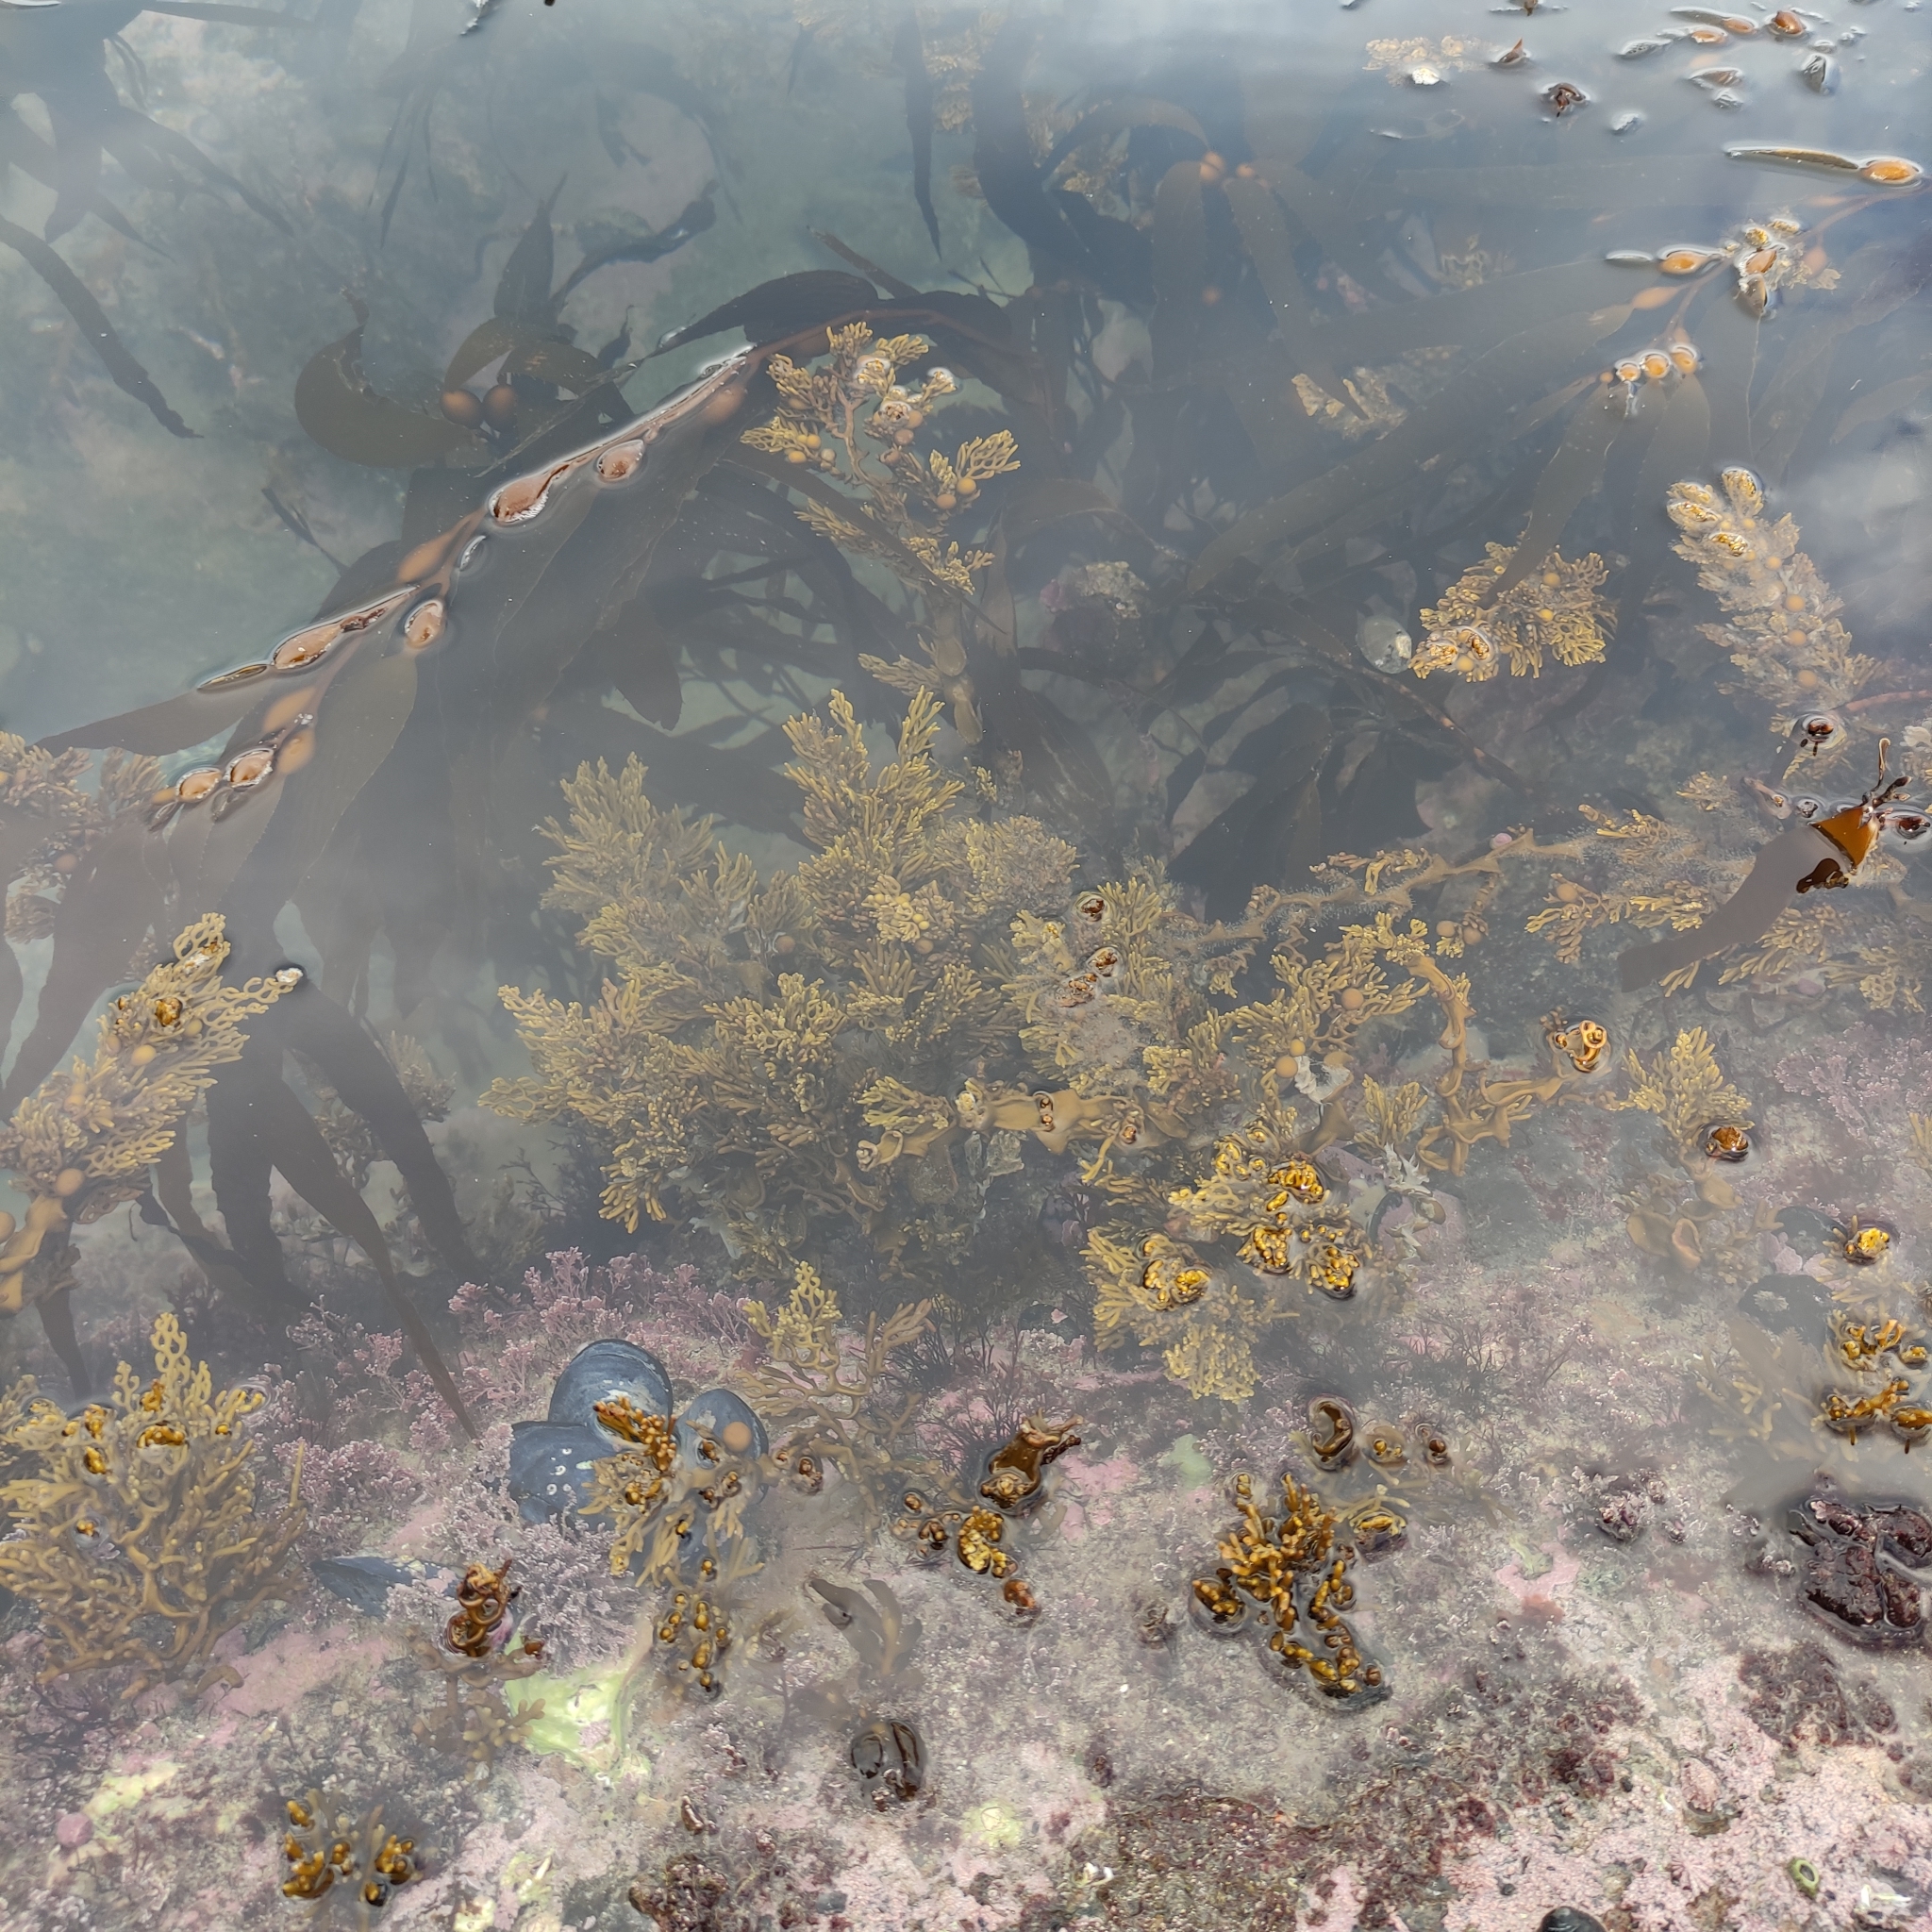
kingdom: Chromista
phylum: Ochrophyta
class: Phaeophyceae
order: Fucales
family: Sargassaceae
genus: Cystophora
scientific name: Cystophora scalaris
